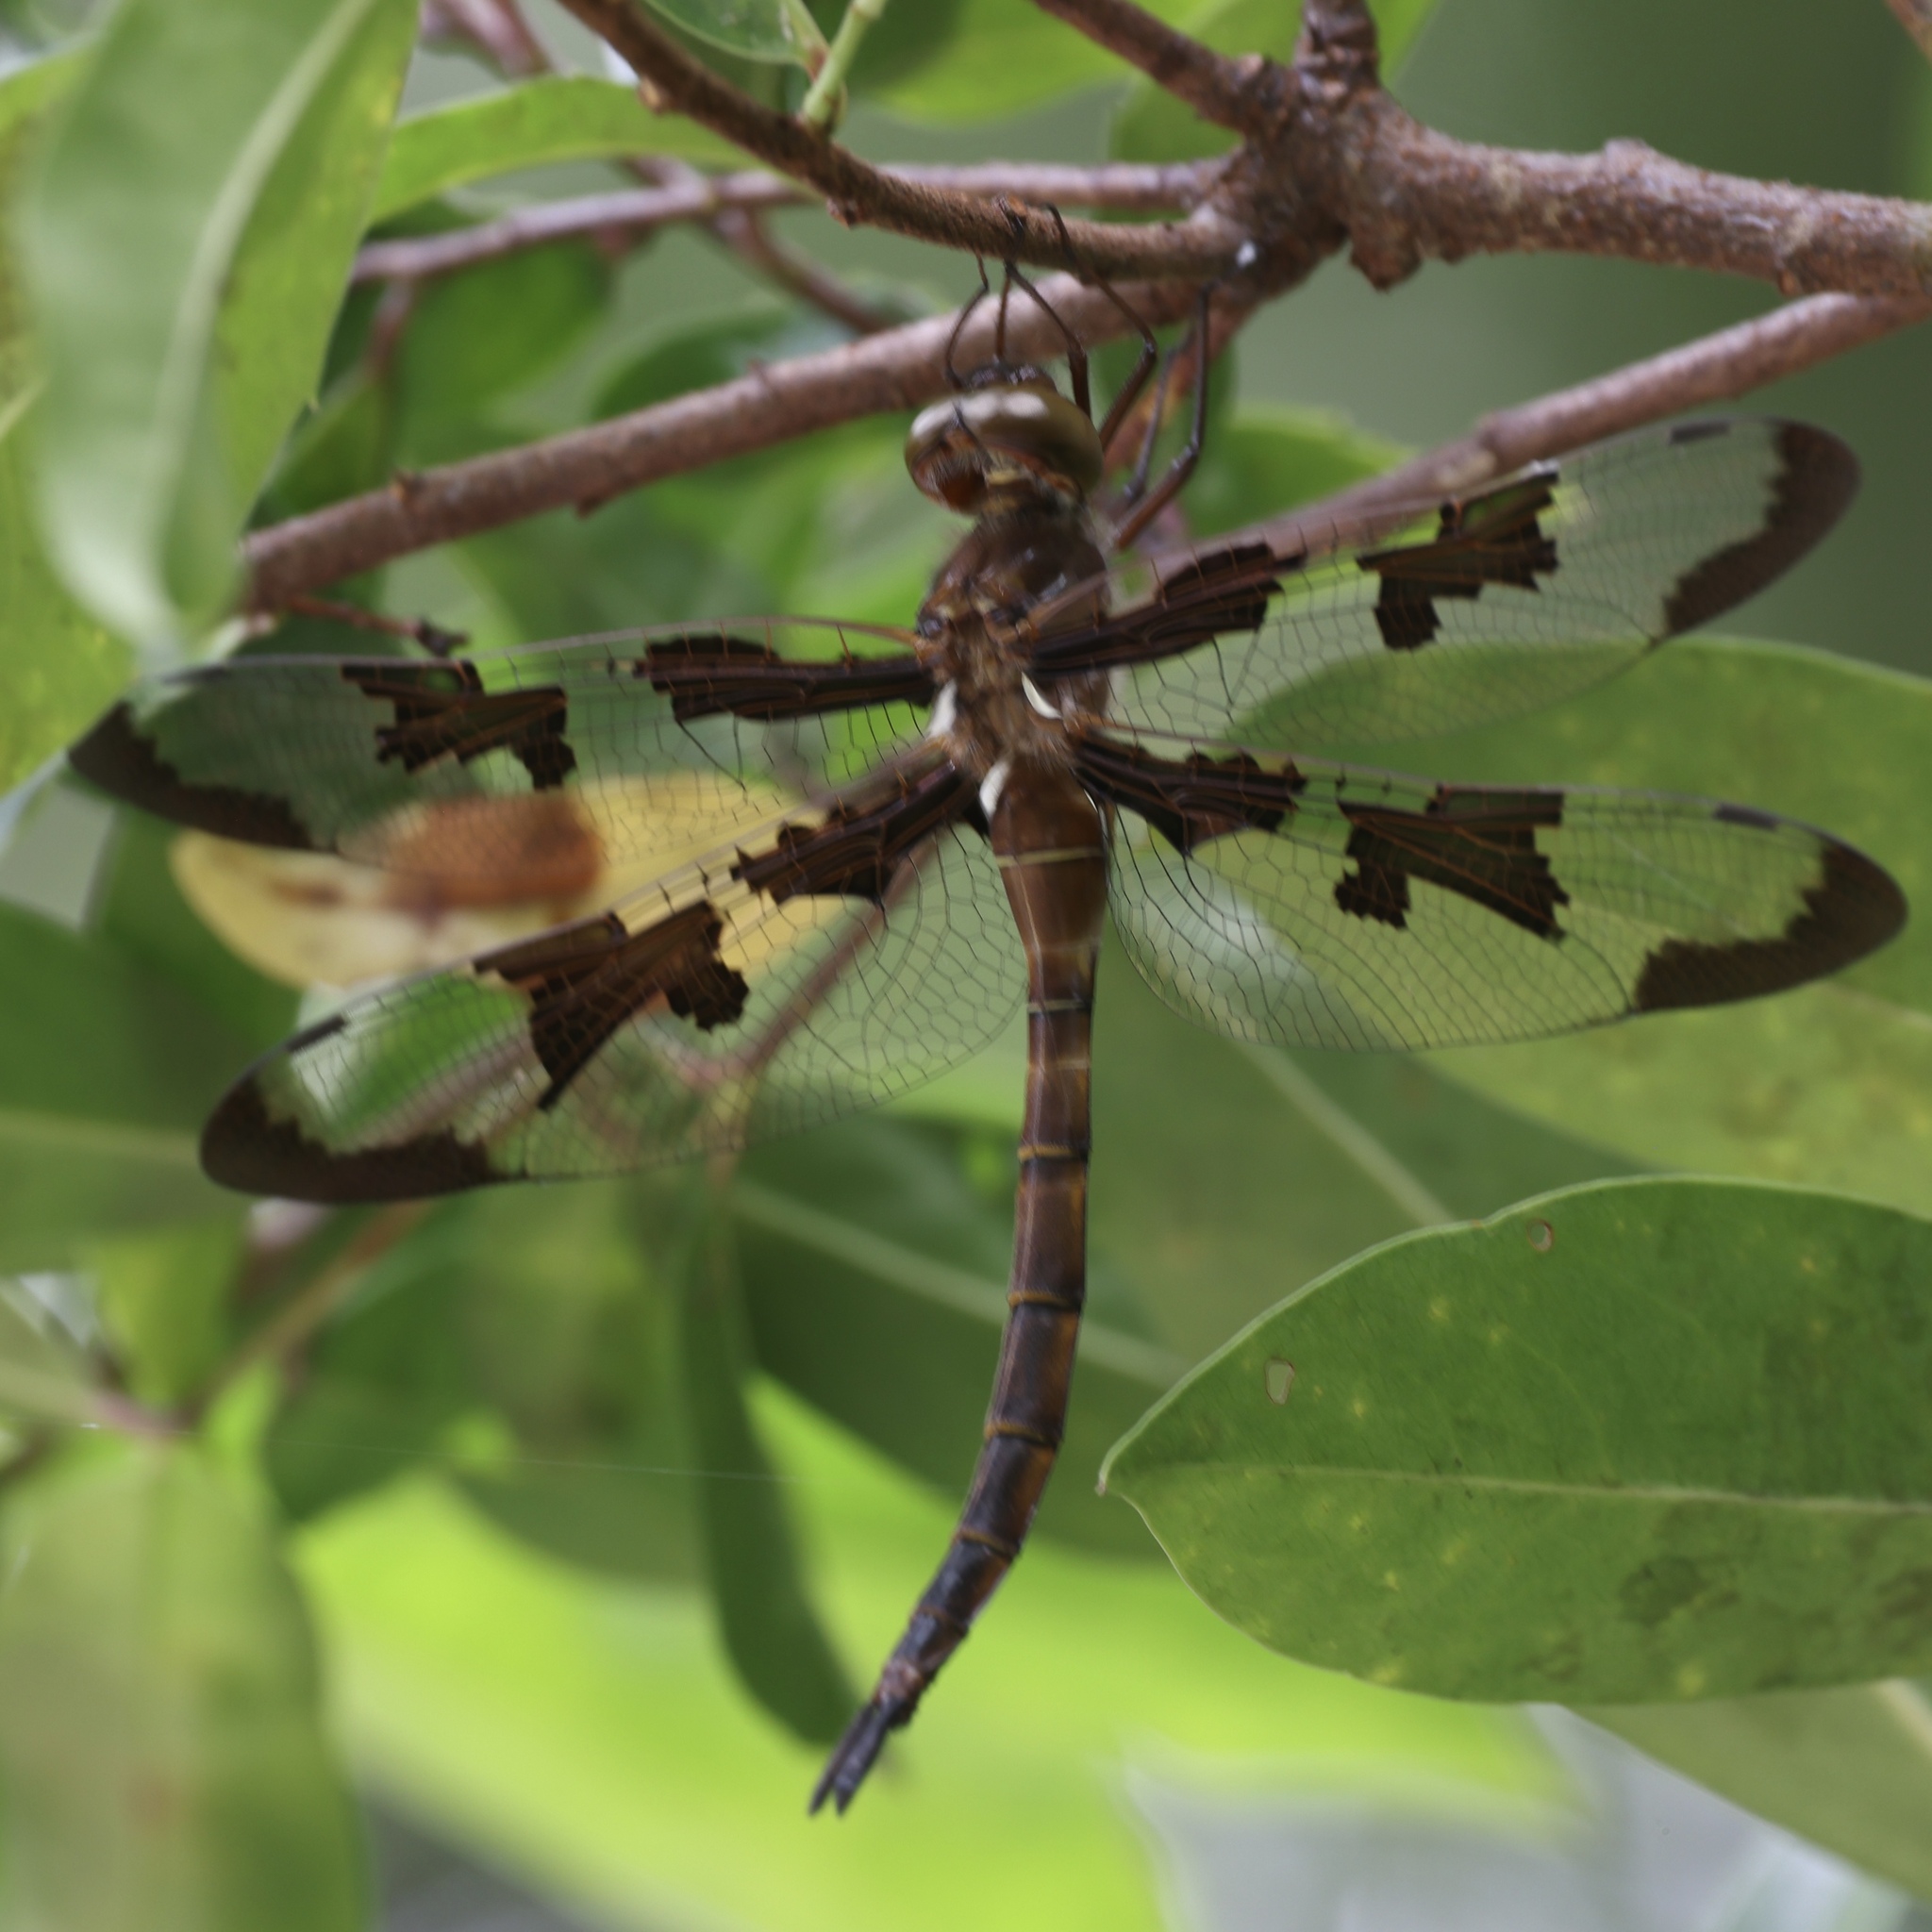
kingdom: Animalia
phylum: Arthropoda
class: Insecta
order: Odonata
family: Corduliidae
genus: Epitheca
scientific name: Epitheca princeps
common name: Prince baskettail
